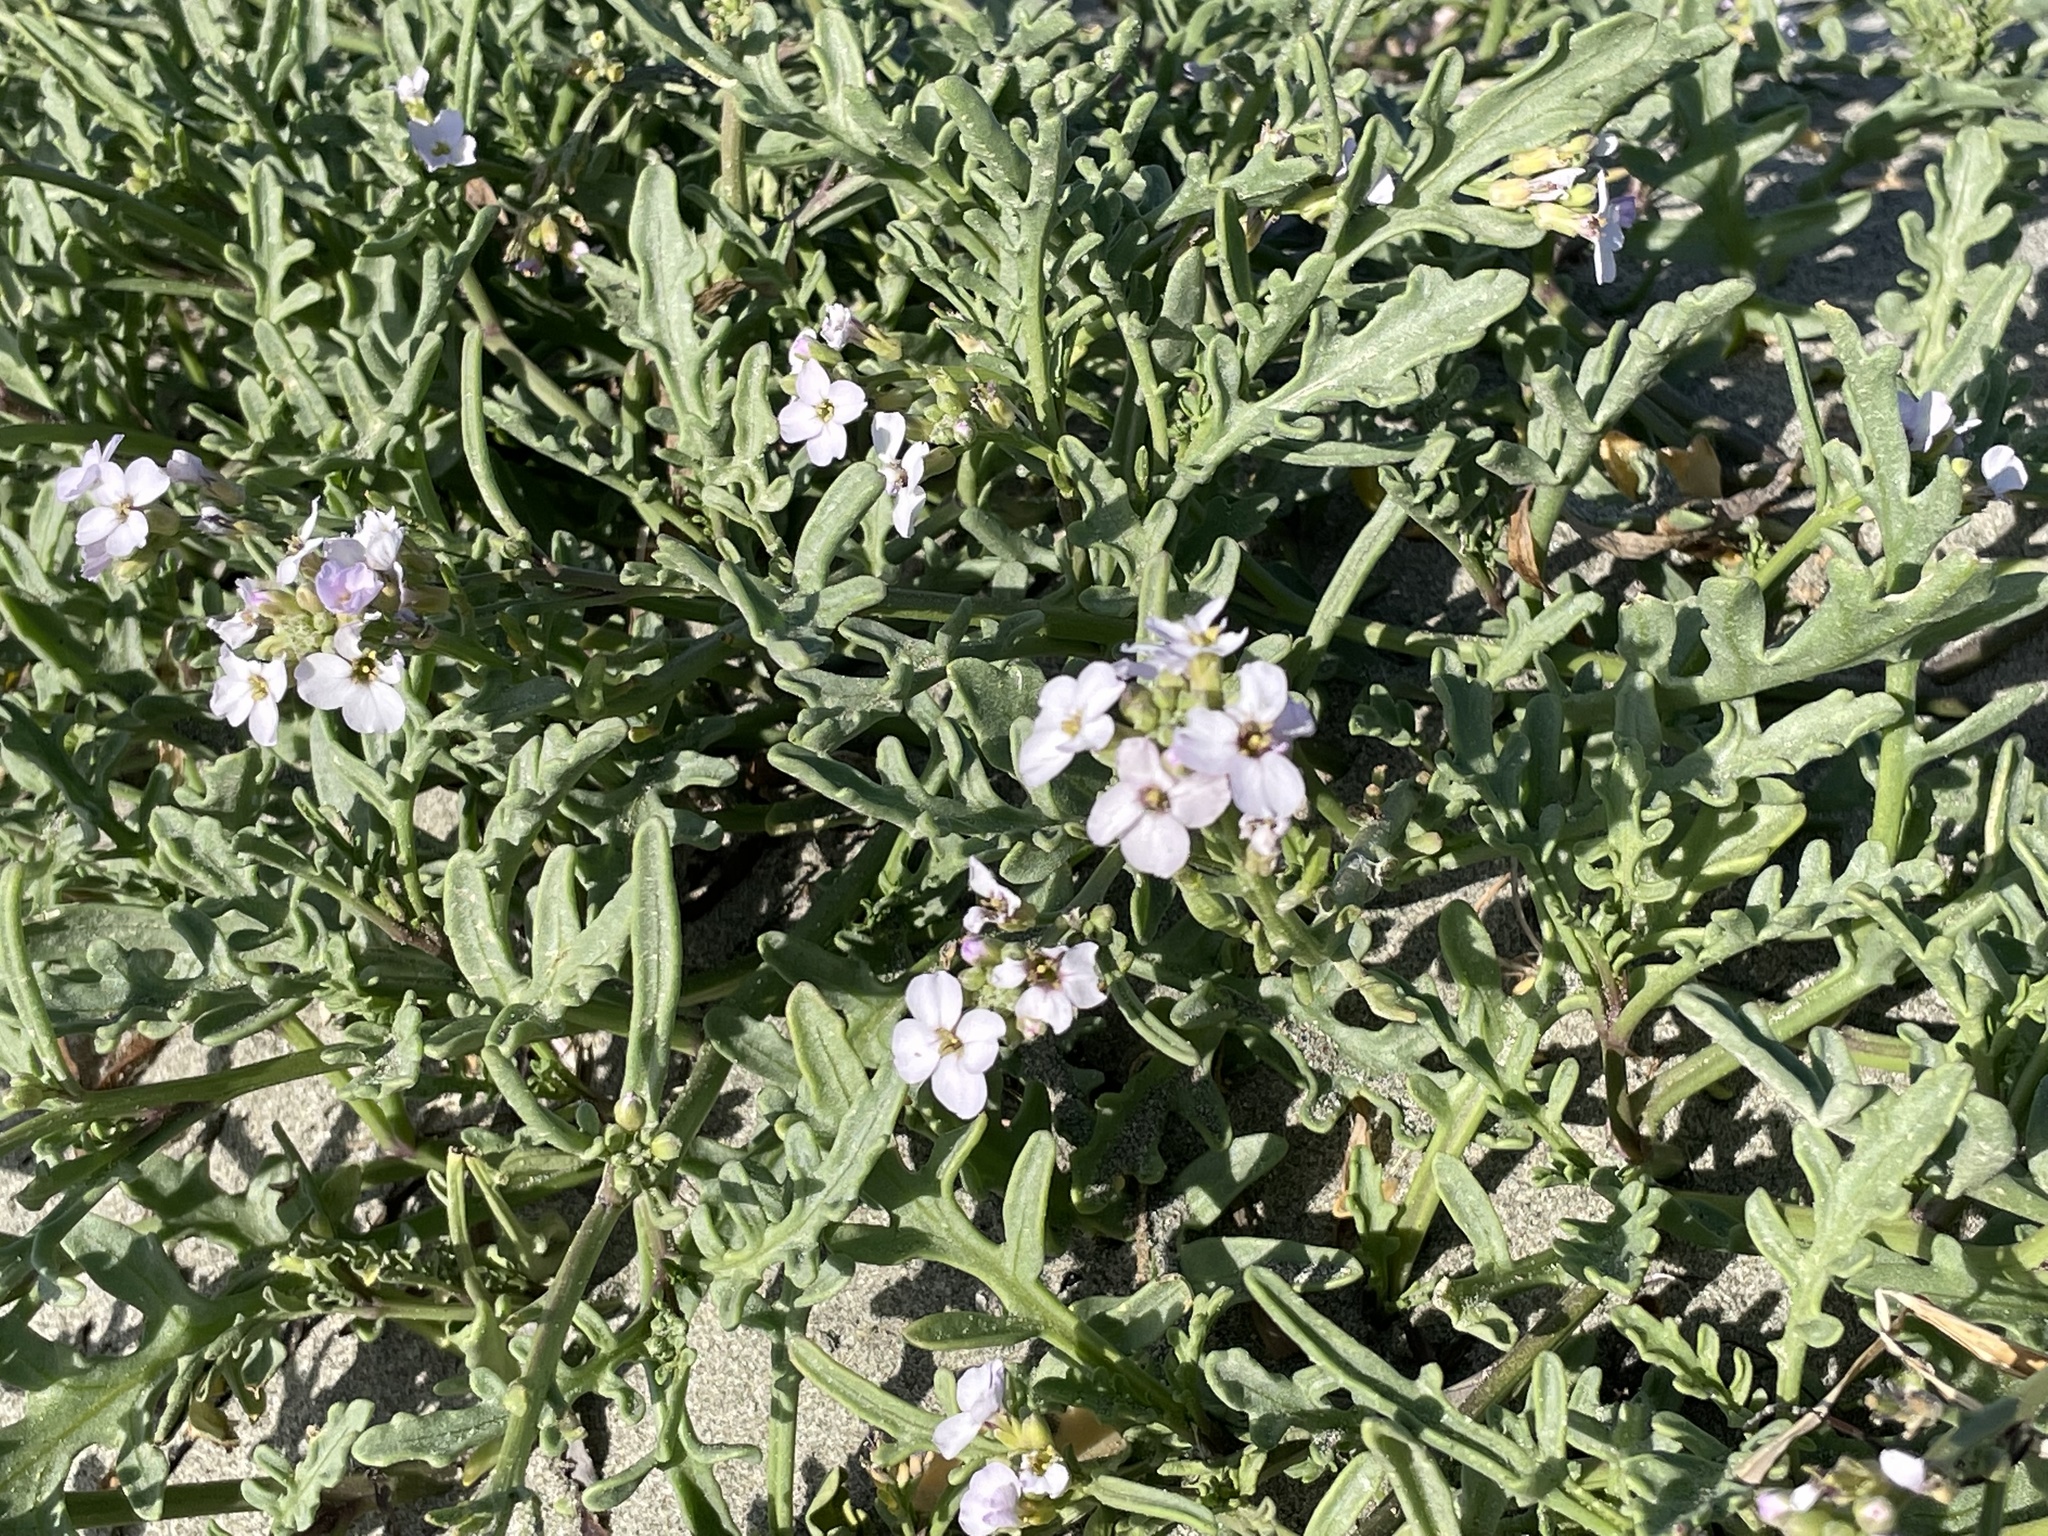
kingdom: Plantae
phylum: Tracheophyta
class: Magnoliopsida
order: Brassicales
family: Brassicaceae
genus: Cakile
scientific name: Cakile maritima
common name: Sea rocket
